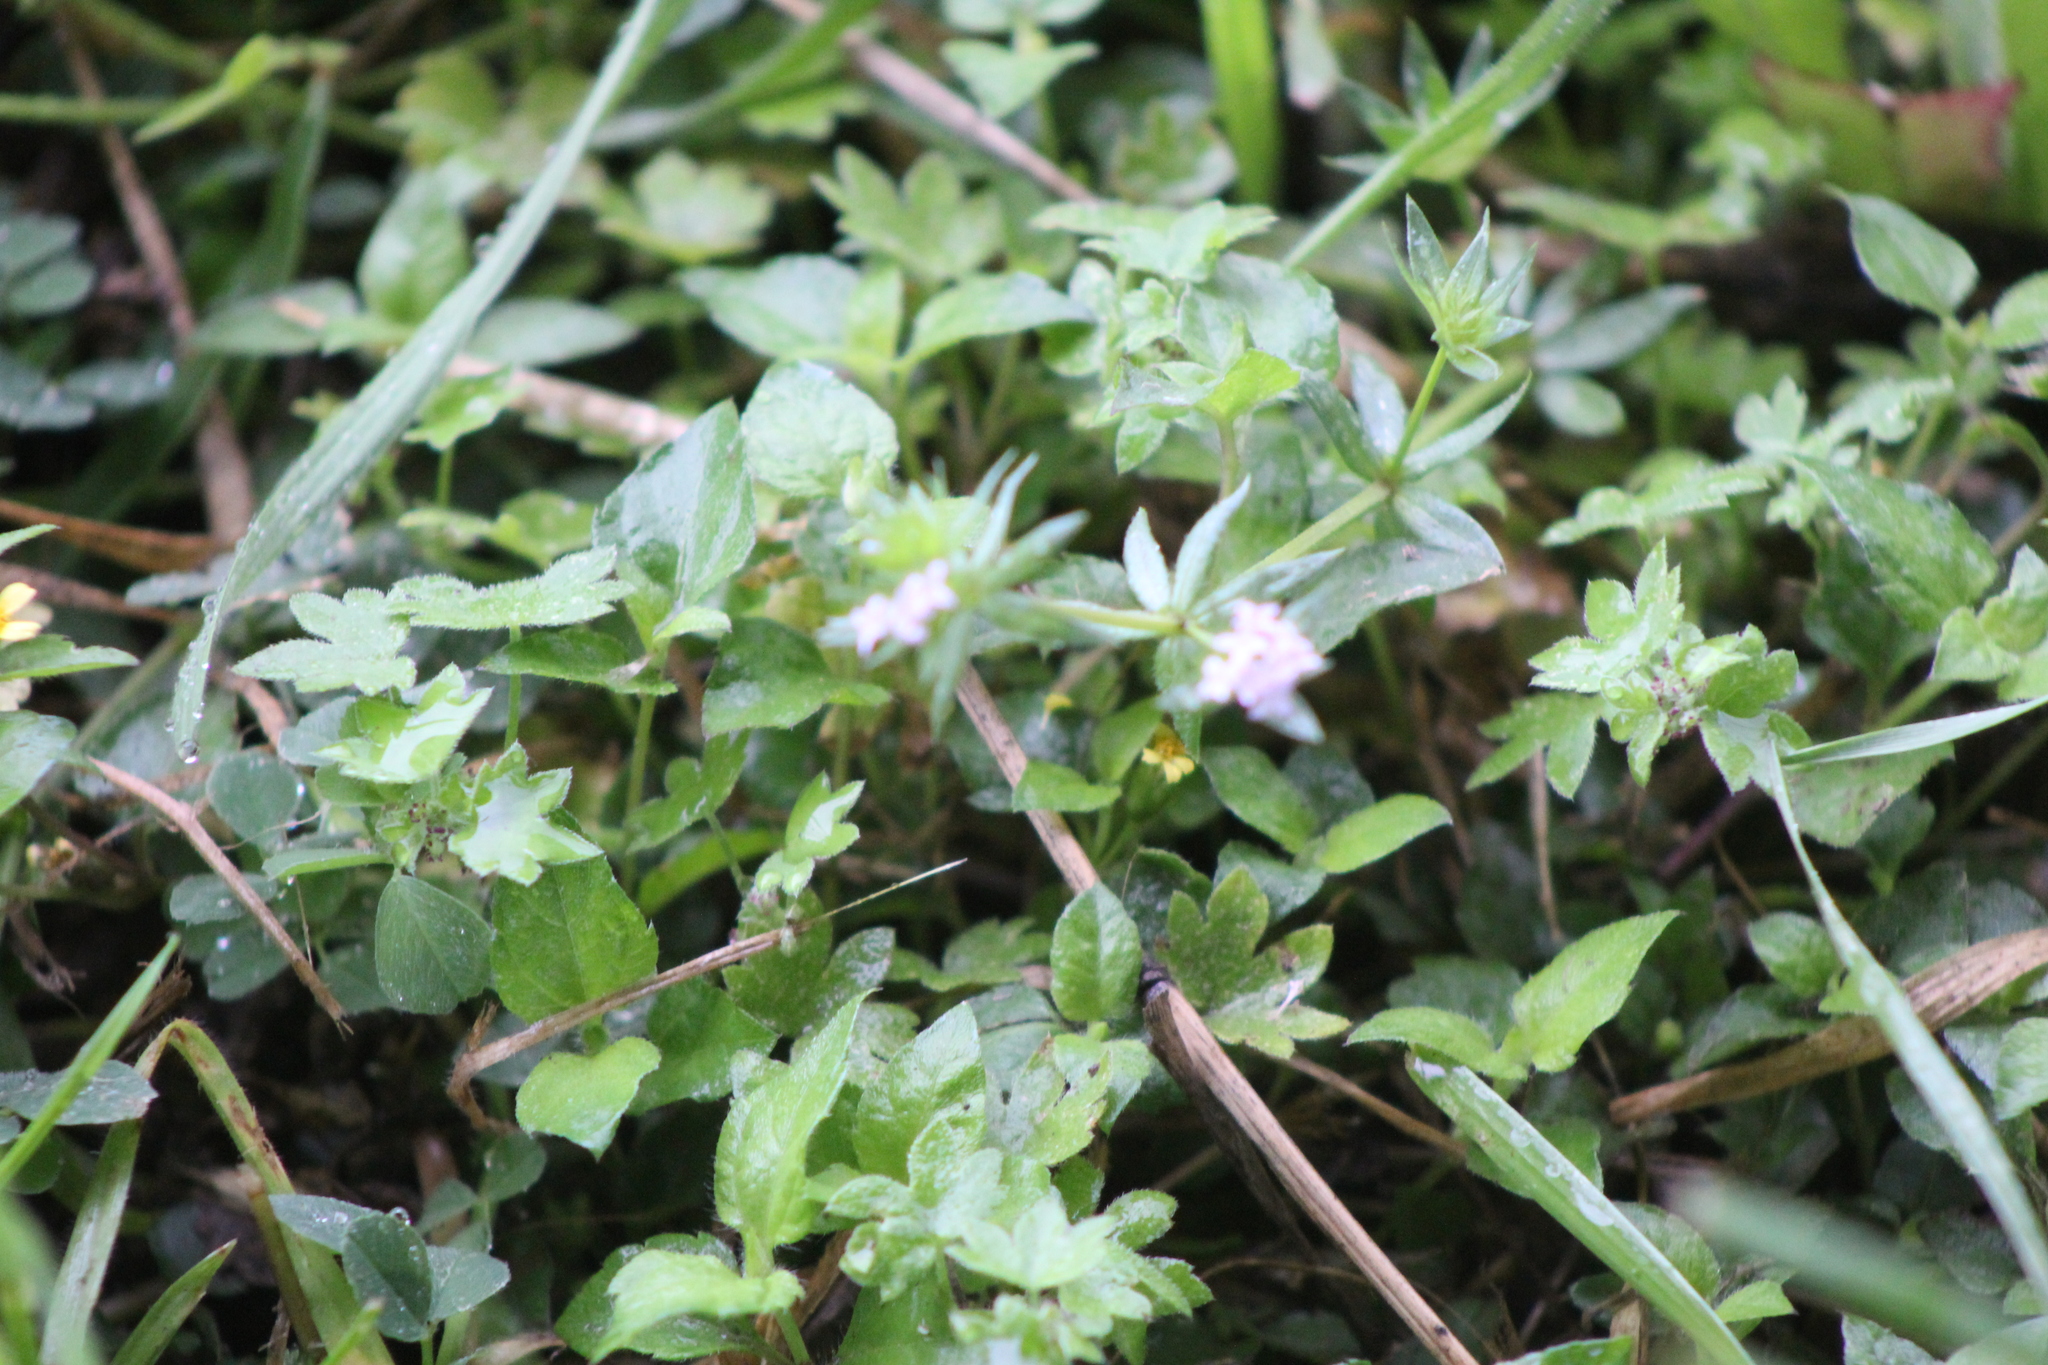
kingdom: Plantae
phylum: Tracheophyta
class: Magnoliopsida
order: Asterales
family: Asteraceae
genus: Calyptocarpus
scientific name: Calyptocarpus vialis
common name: Straggler daisy
